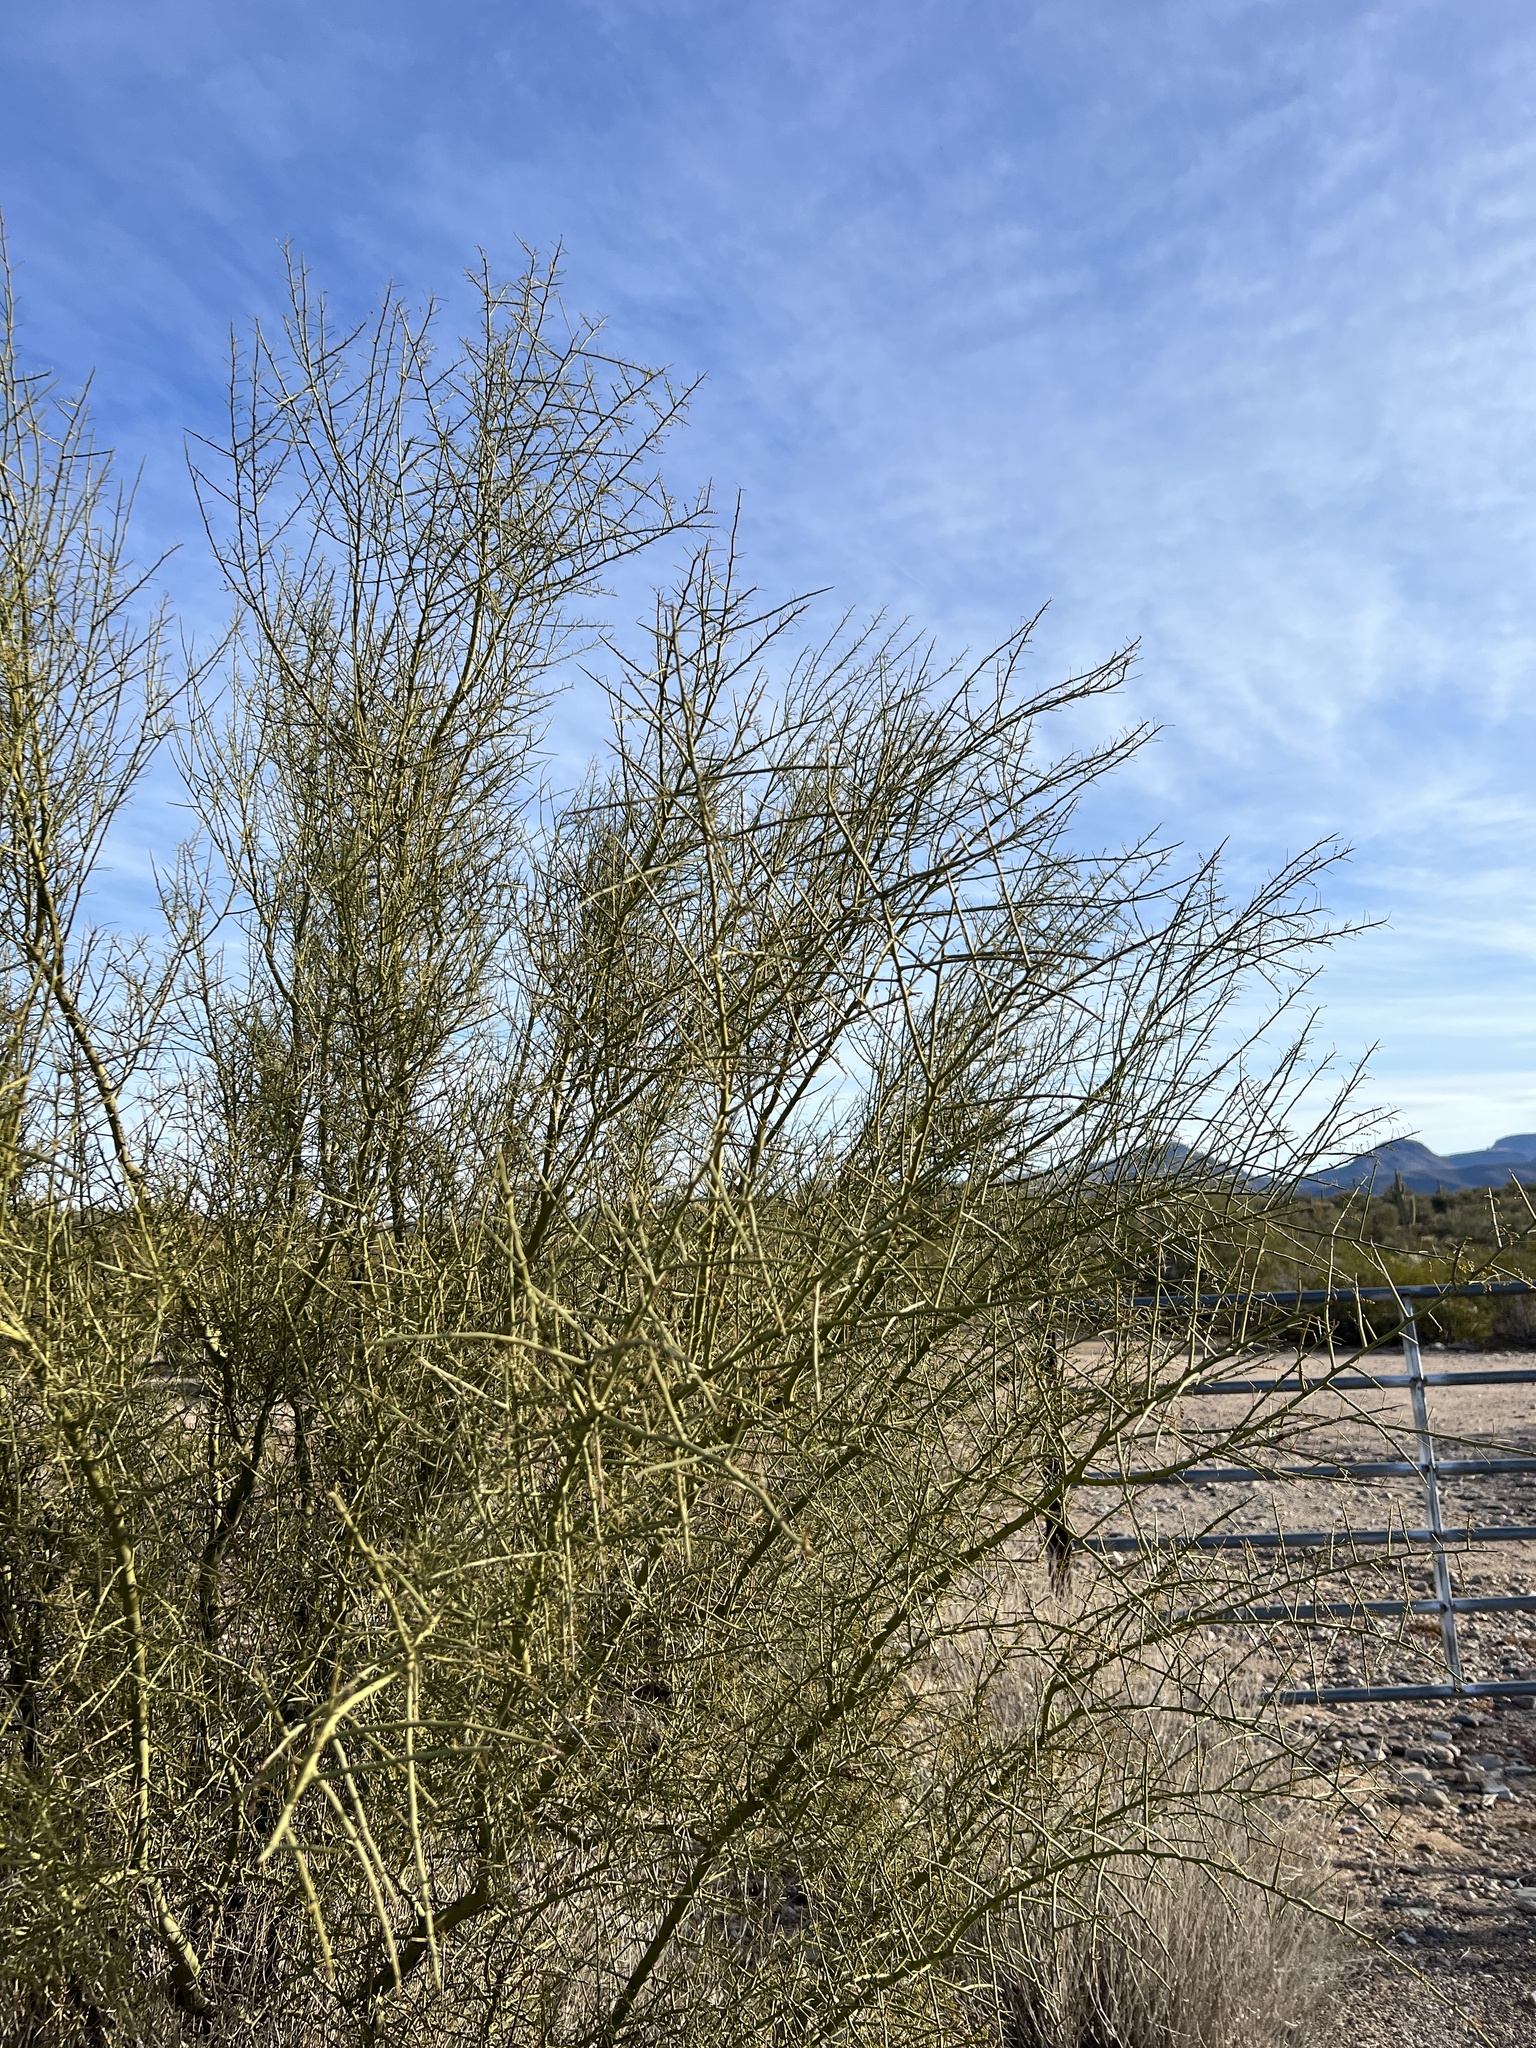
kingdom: Plantae
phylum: Tracheophyta
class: Magnoliopsida
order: Fabales
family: Fabaceae
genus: Parkinsonia
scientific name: Parkinsonia microphylla
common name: Yellow paloverde
